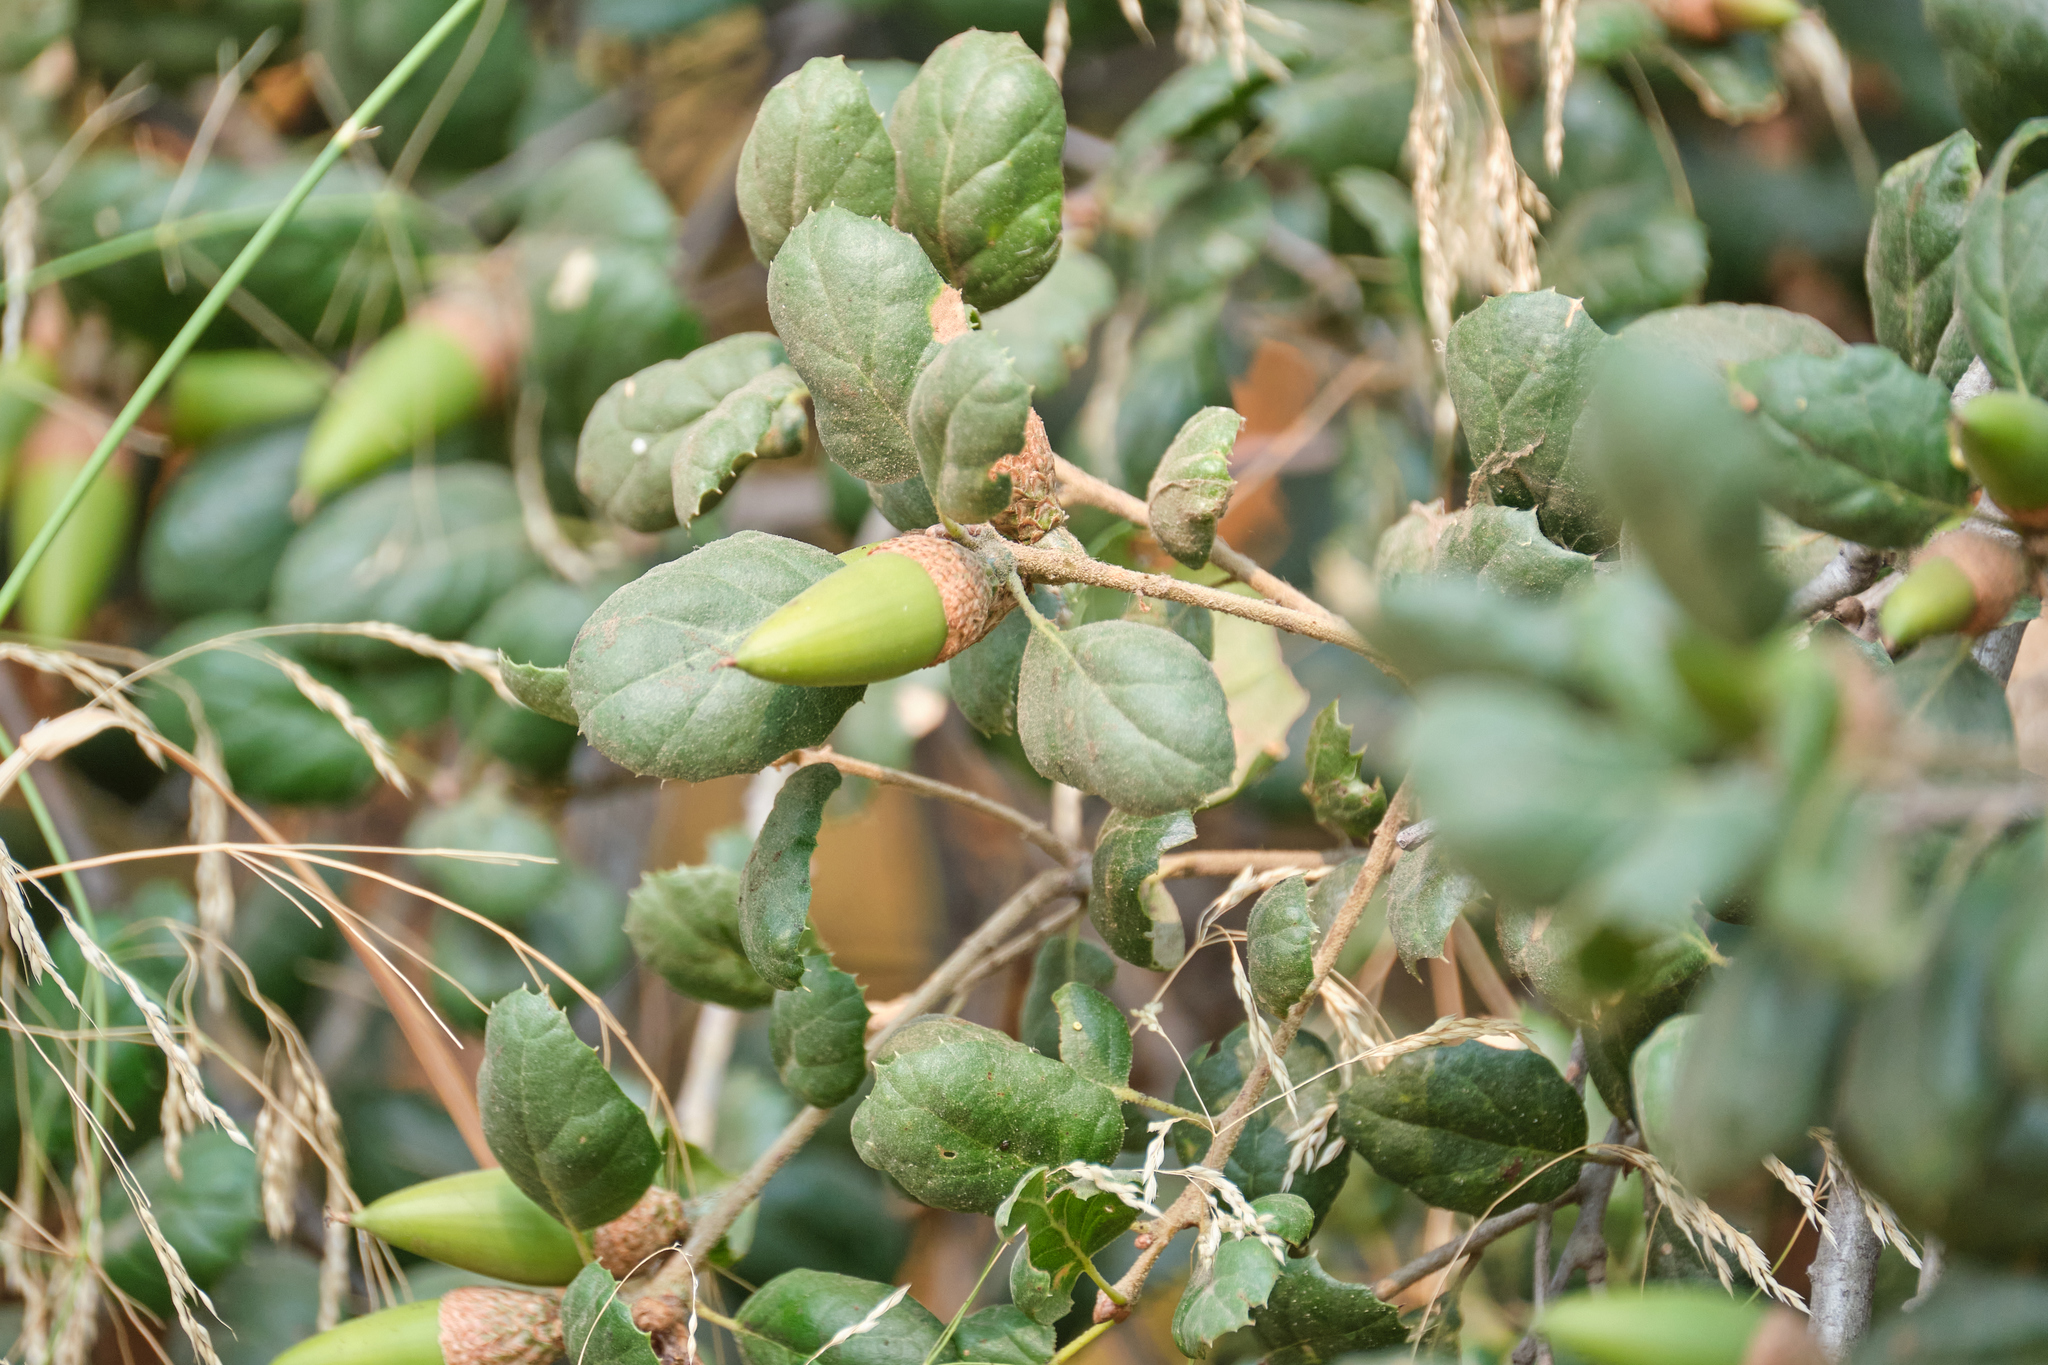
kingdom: Plantae
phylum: Tracheophyta
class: Magnoliopsida
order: Fagales
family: Fagaceae
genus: Quercus
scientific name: Quercus agrifolia
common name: California live oak
